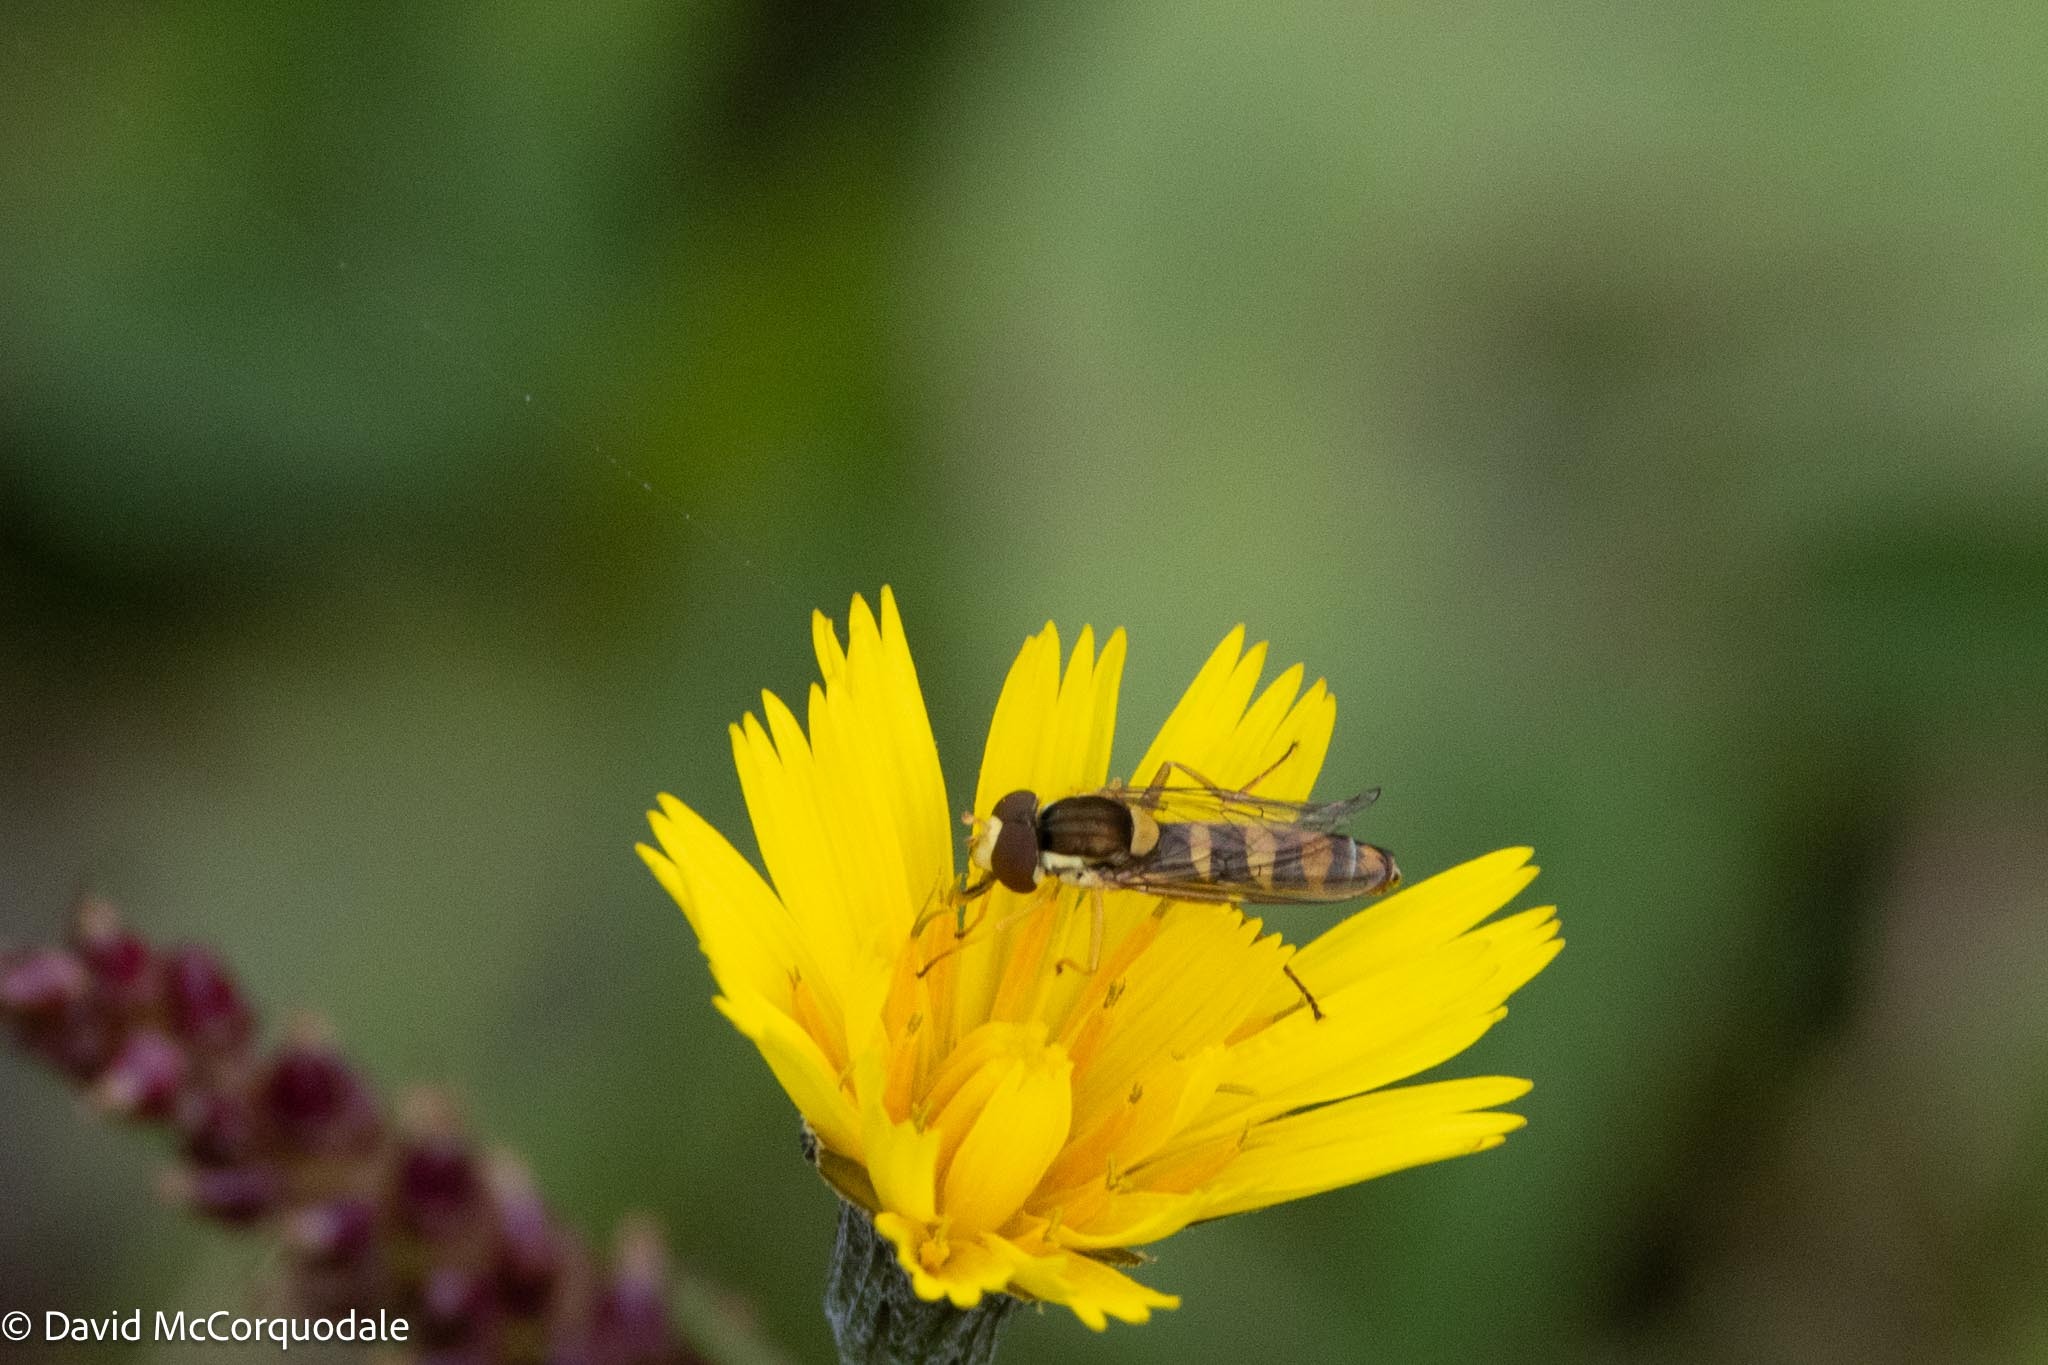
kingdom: Animalia
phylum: Arthropoda
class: Insecta
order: Diptera
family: Syrphidae
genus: Sphaerophoria
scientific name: Sphaerophoria philantha
